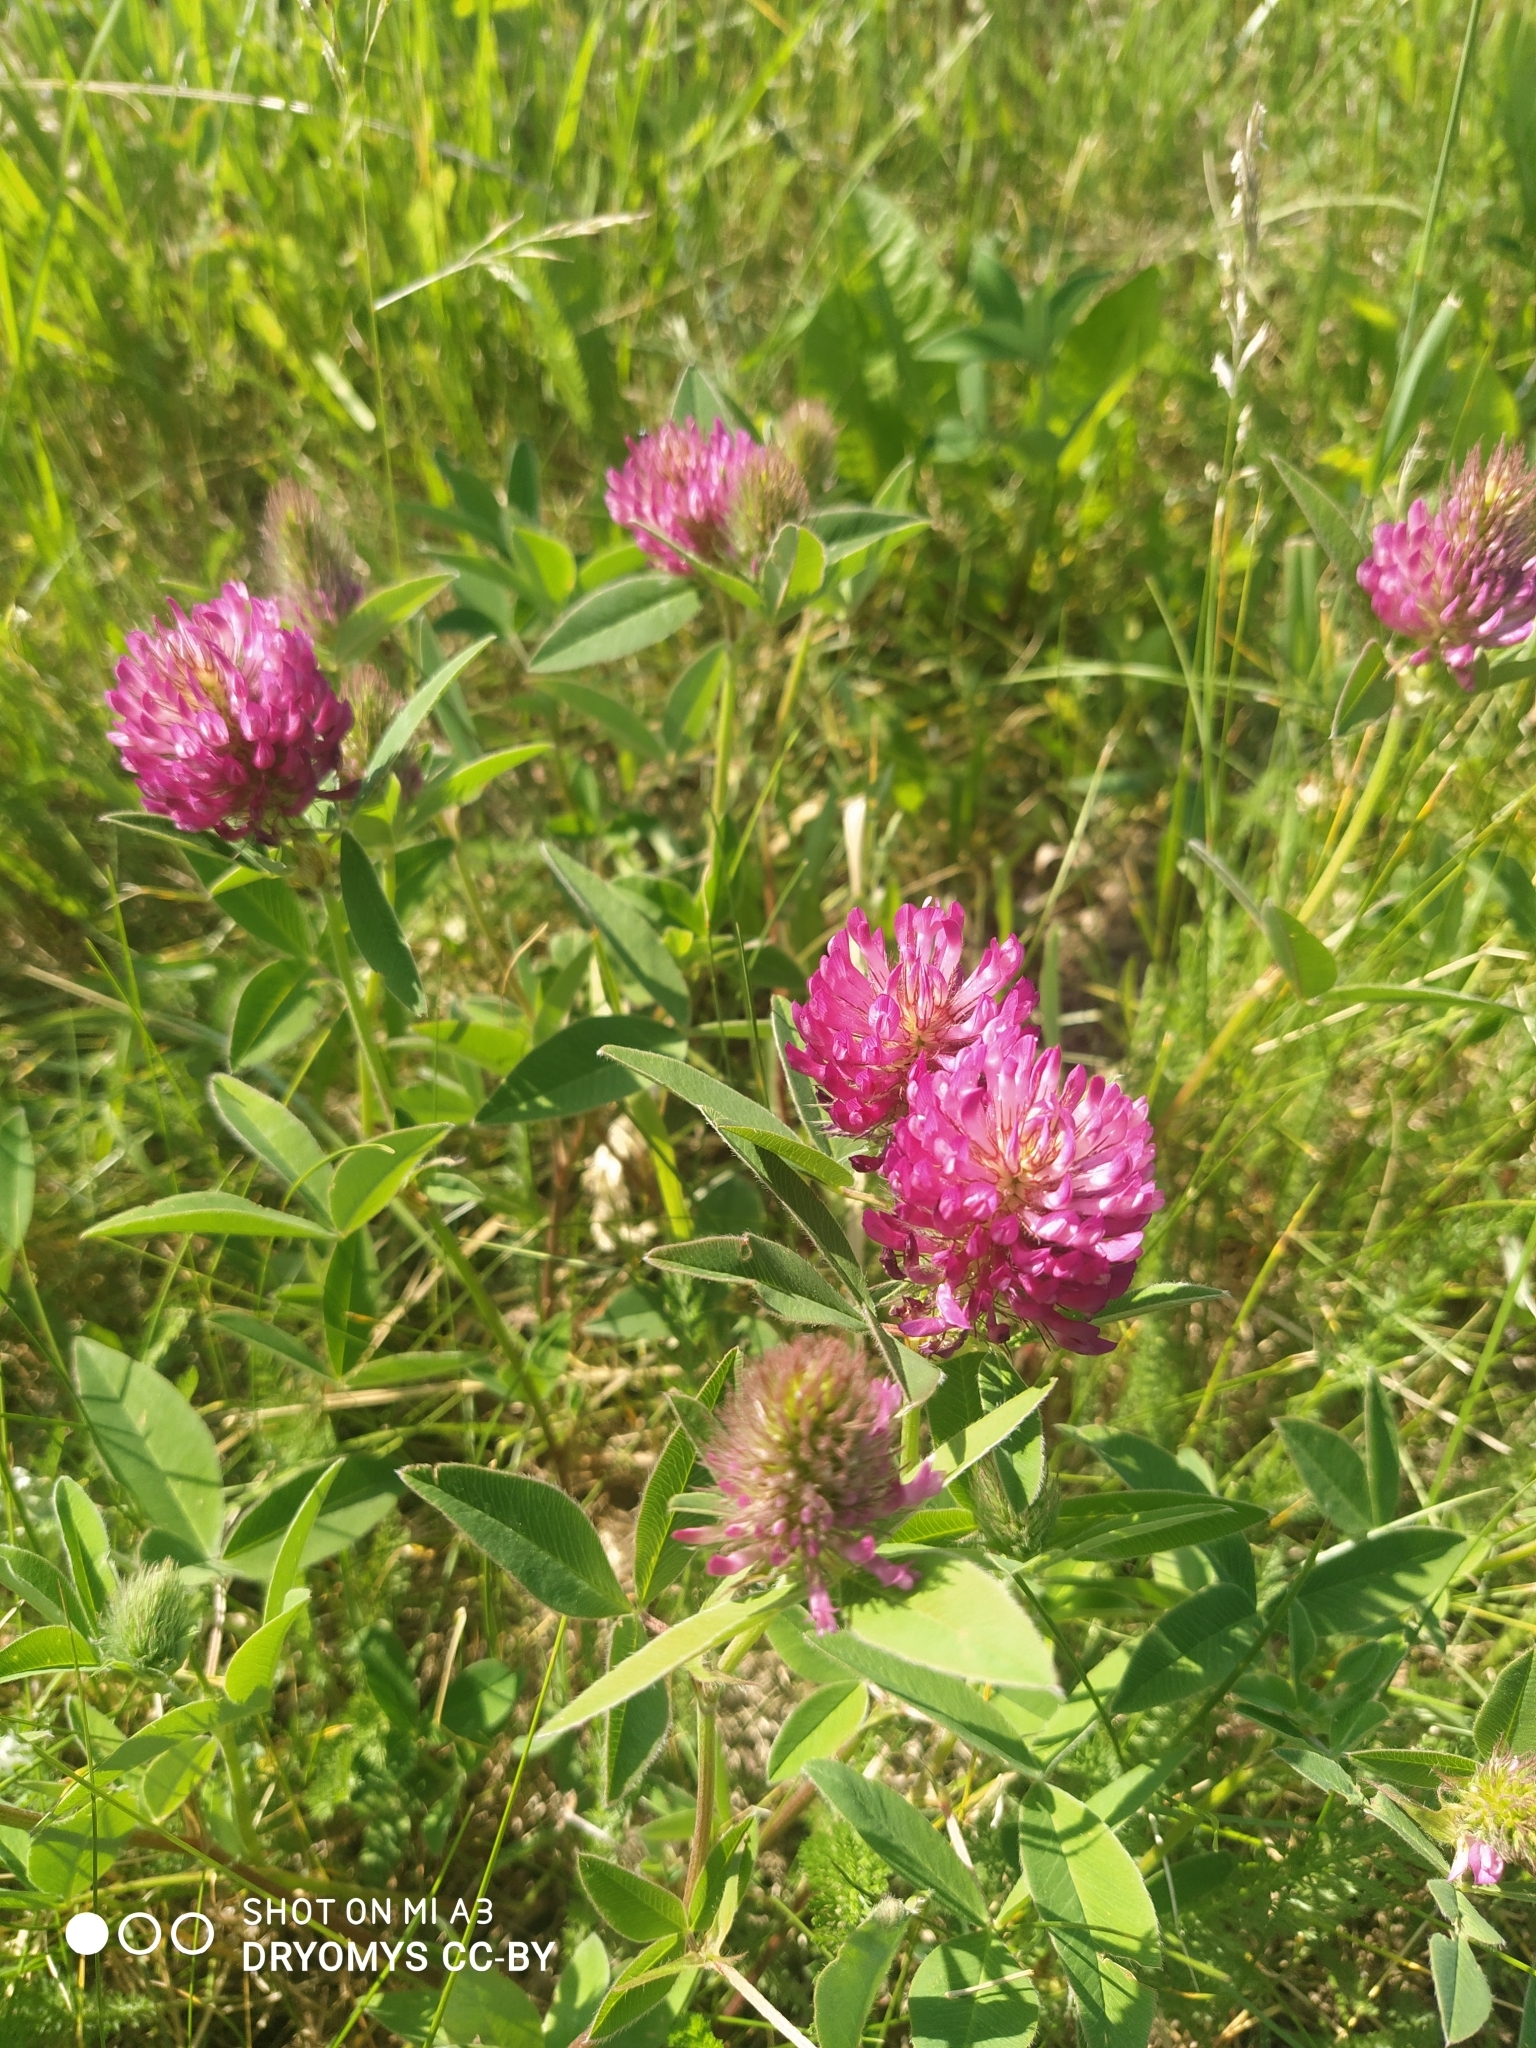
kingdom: Plantae
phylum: Tracheophyta
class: Magnoliopsida
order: Fabales
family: Fabaceae
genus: Trifolium
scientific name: Trifolium medium
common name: Zigzag clover
